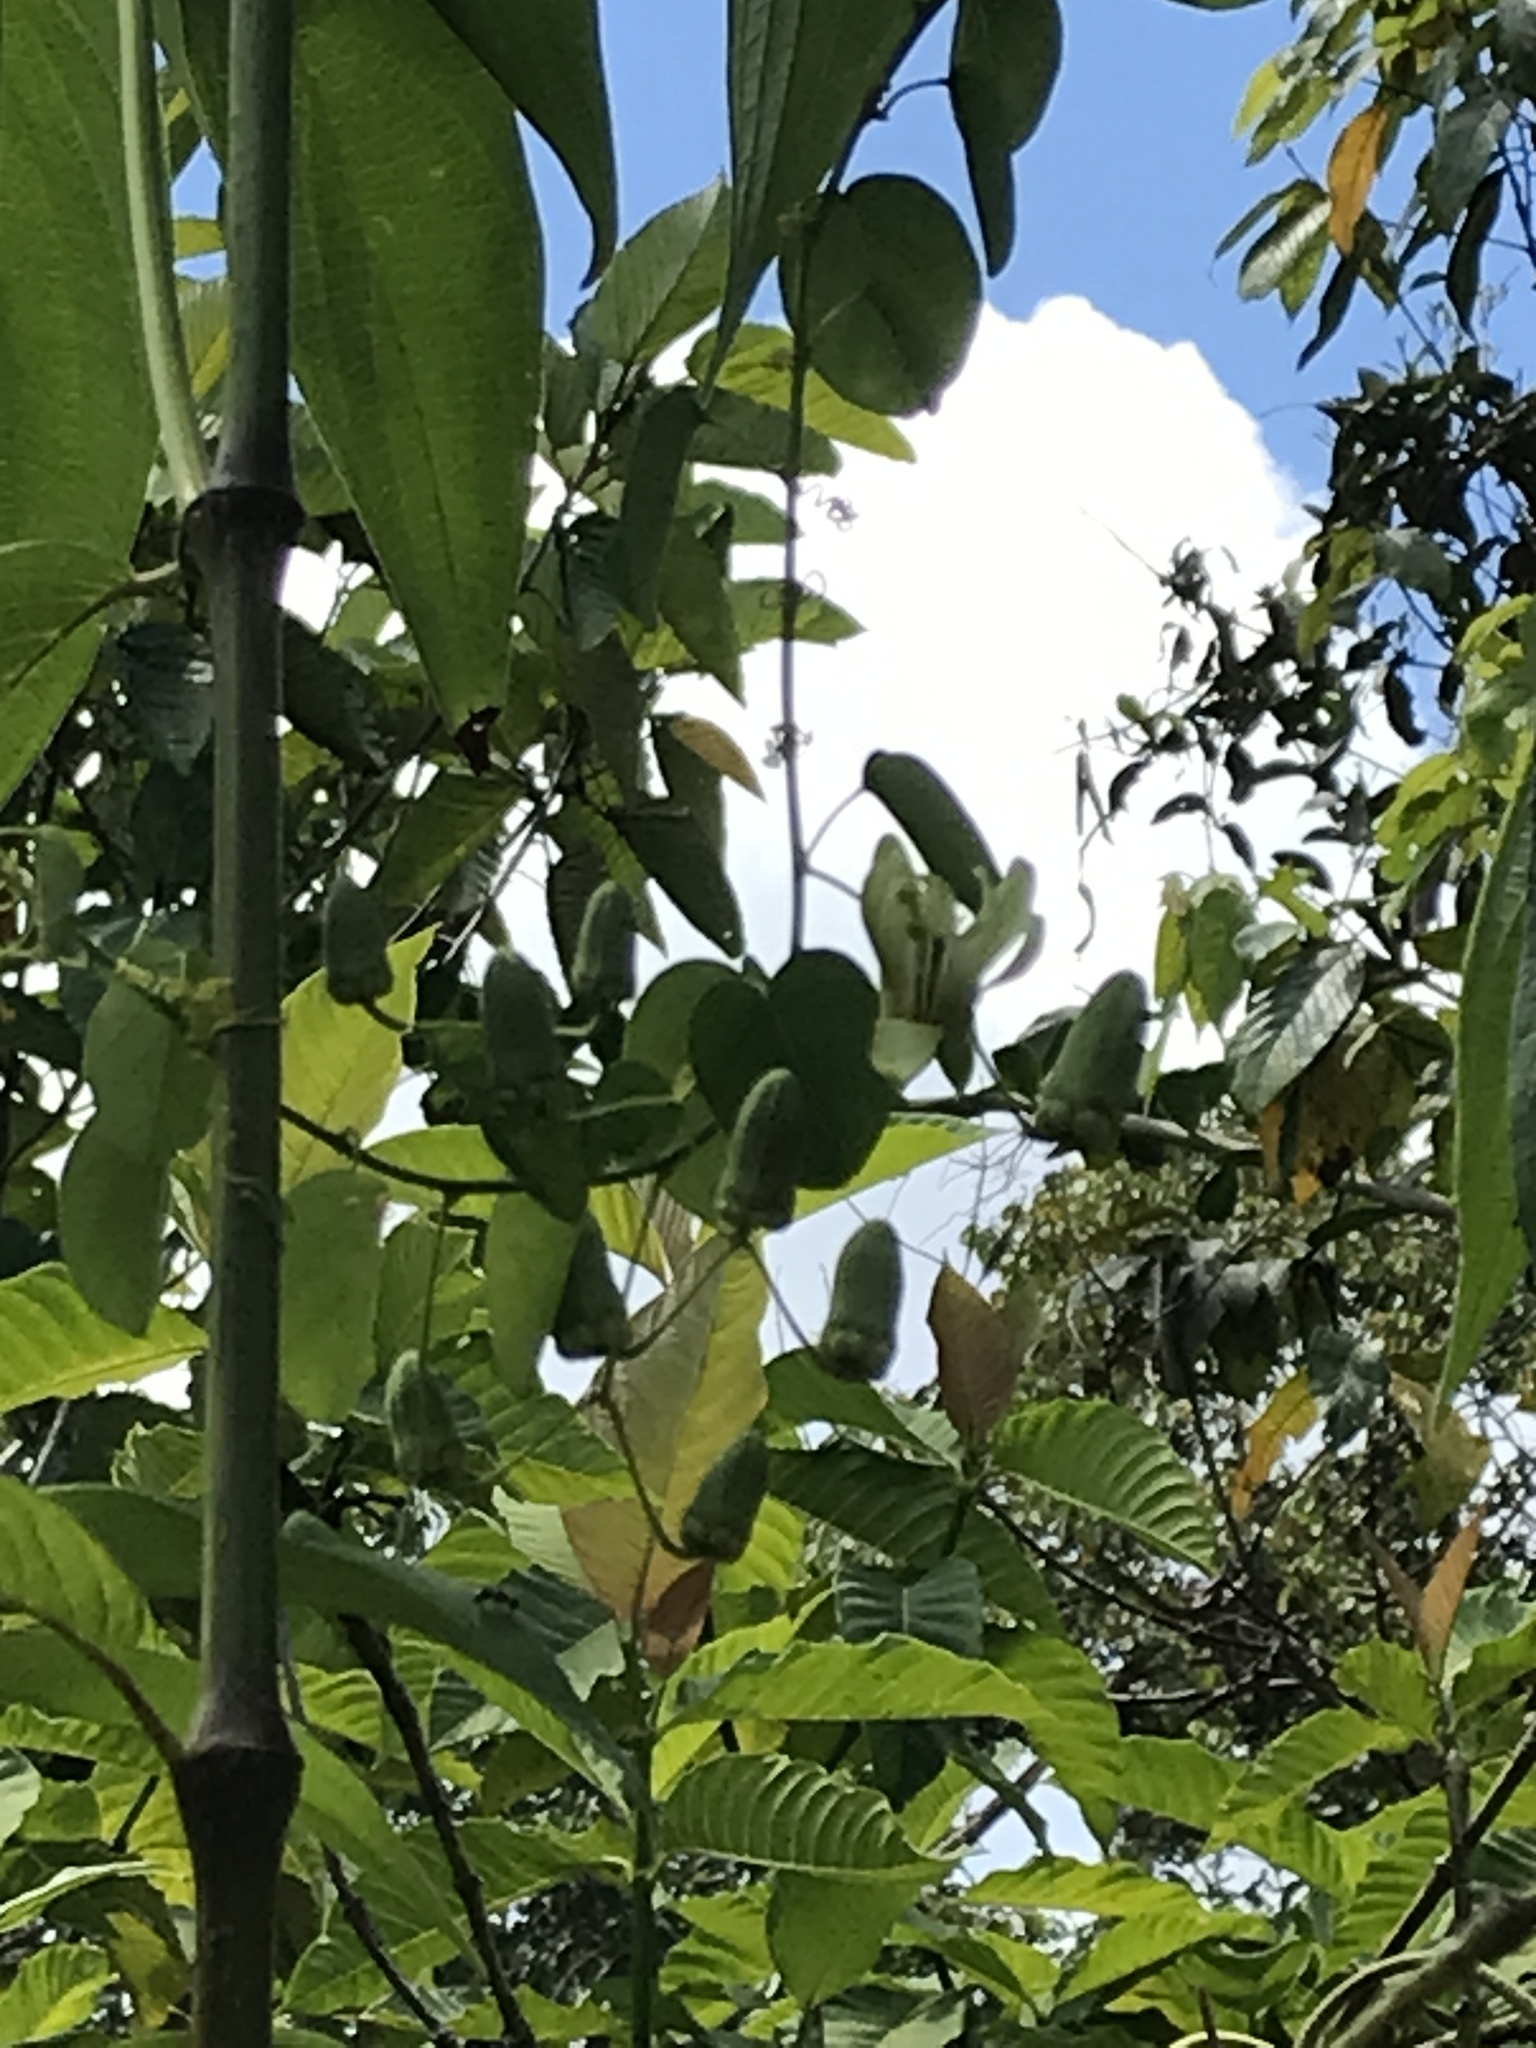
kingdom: Plantae
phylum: Tracheophyta
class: Magnoliopsida
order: Malpighiales
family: Passifloraceae
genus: Passiflora
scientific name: Passiflora arbelaezii
